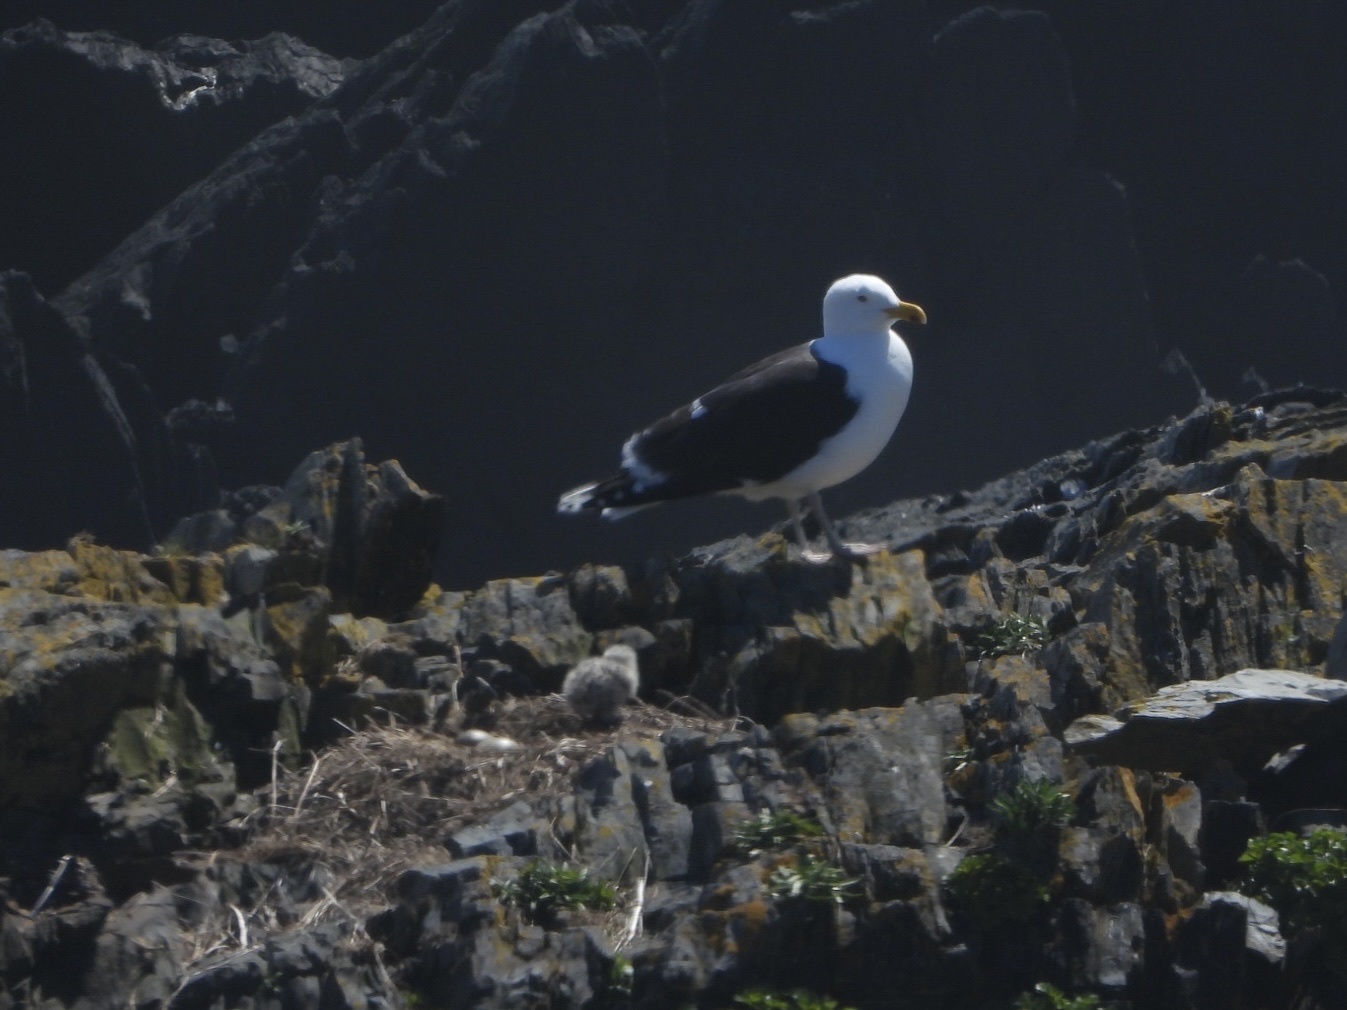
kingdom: Animalia
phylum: Chordata
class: Aves
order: Charadriiformes
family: Laridae
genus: Larus
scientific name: Larus marinus
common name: Great black-backed gull
